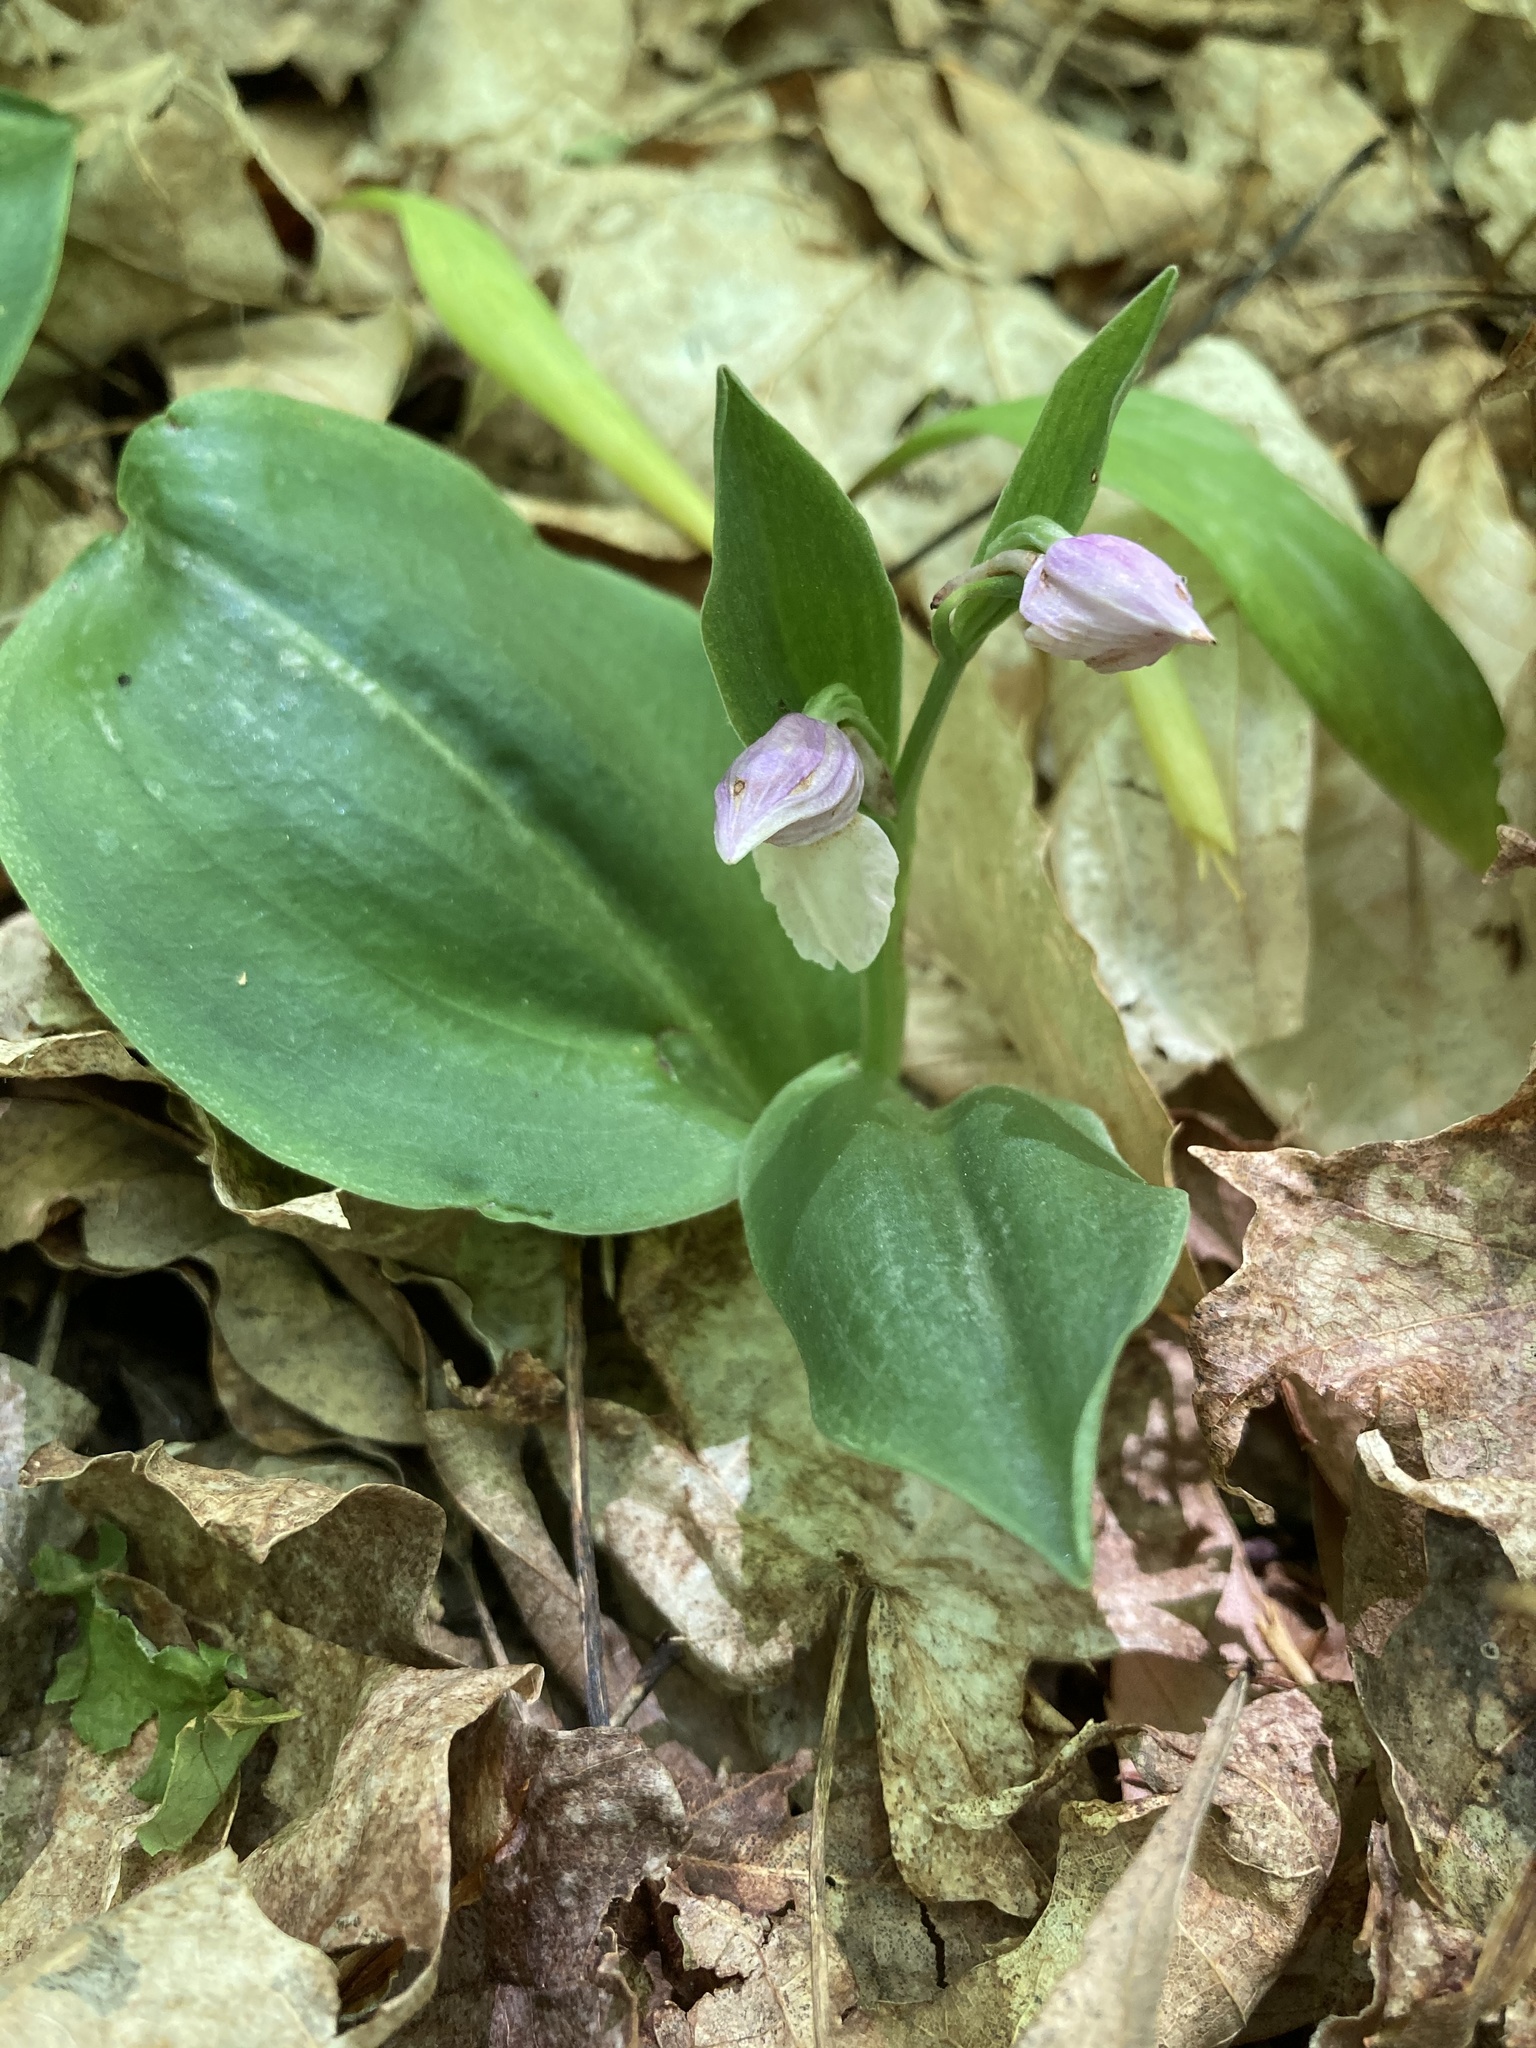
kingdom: Plantae
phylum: Tracheophyta
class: Liliopsida
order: Asparagales
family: Orchidaceae
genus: Galearis
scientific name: Galearis spectabilis
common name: Purple-hooded orchis
